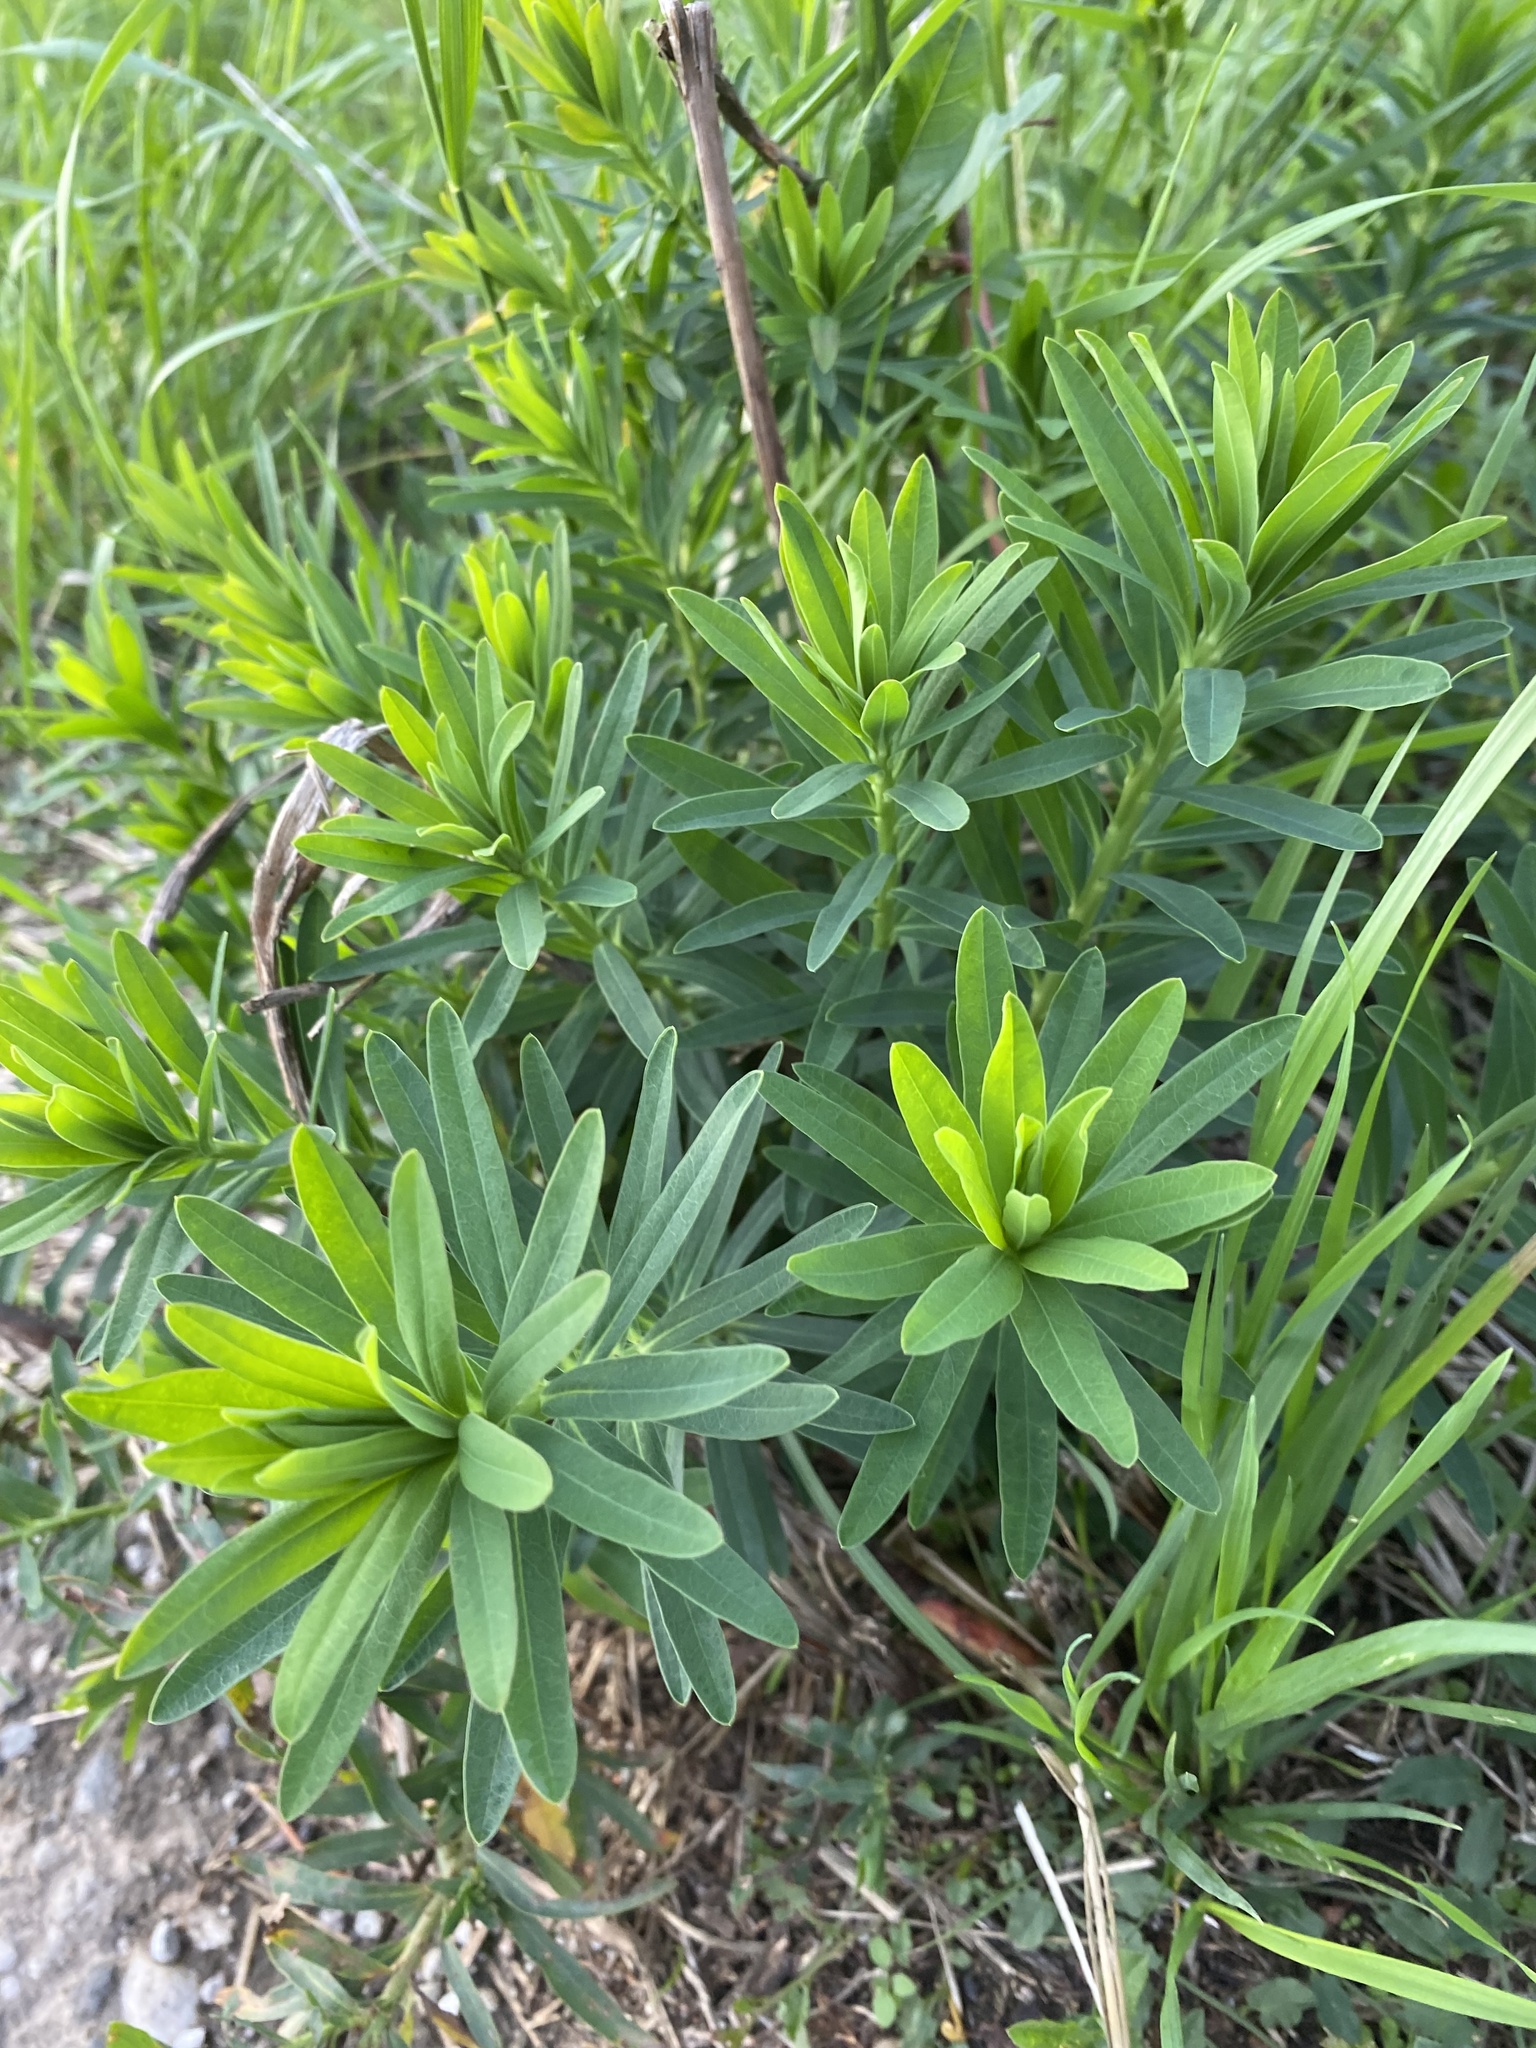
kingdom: Plantae
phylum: Tracheophyta
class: Magnoliopsida
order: Malpighiales
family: Euphorbiaceae
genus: Euphorbia
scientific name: Euphorbia esula
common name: Leafy spurge
